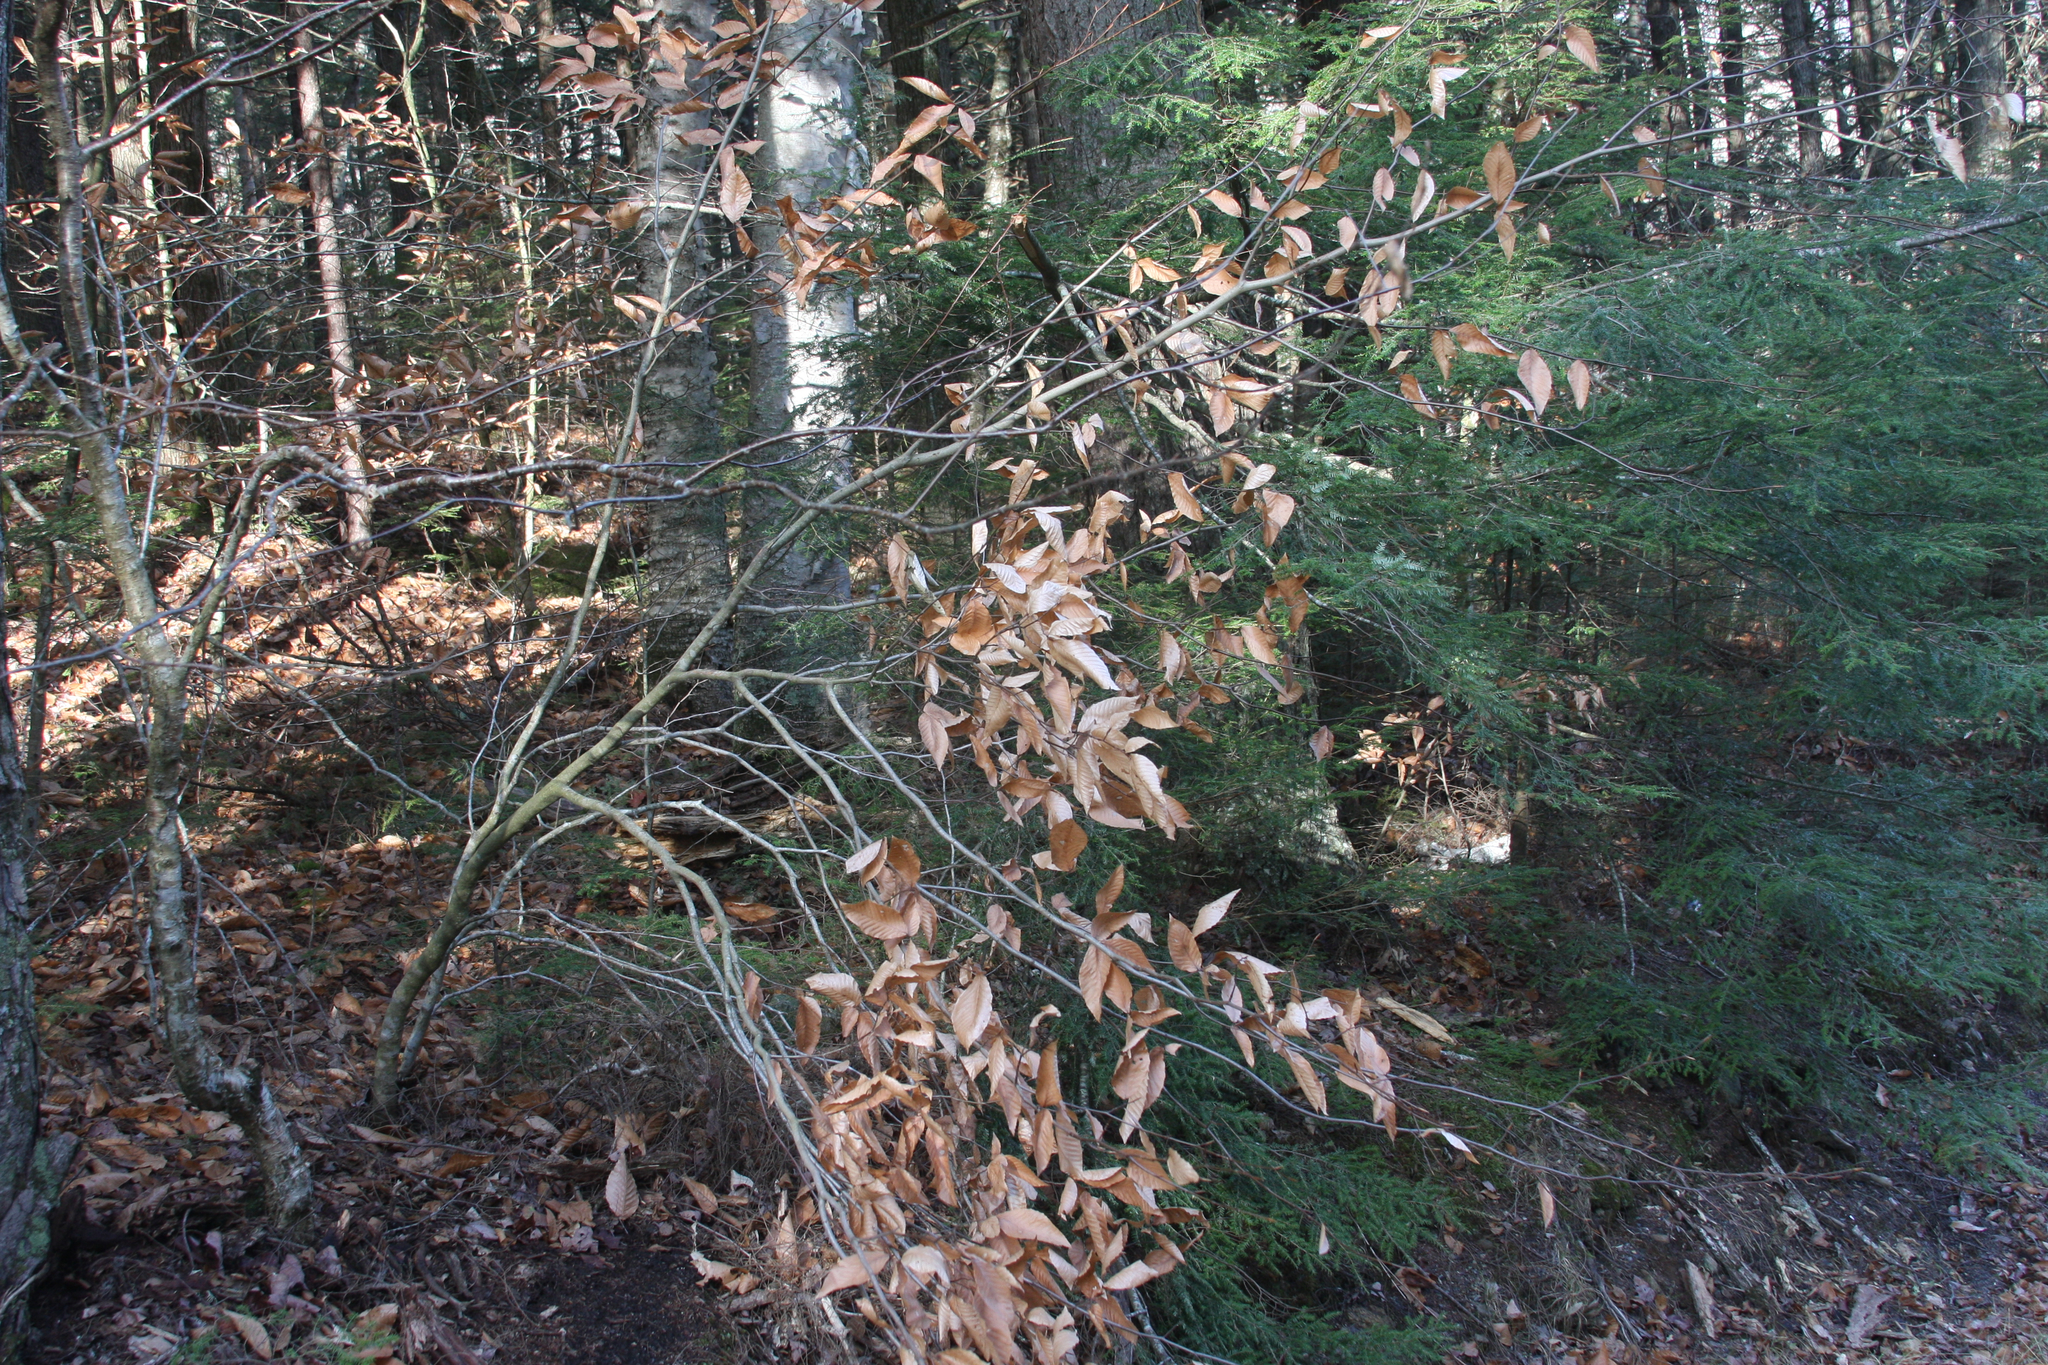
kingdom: Plantae
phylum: Tracheophyta
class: Magnoliopsida
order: Fagales
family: Fagaceae
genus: Fagus
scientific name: Fagus grandifolia
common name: American beech
